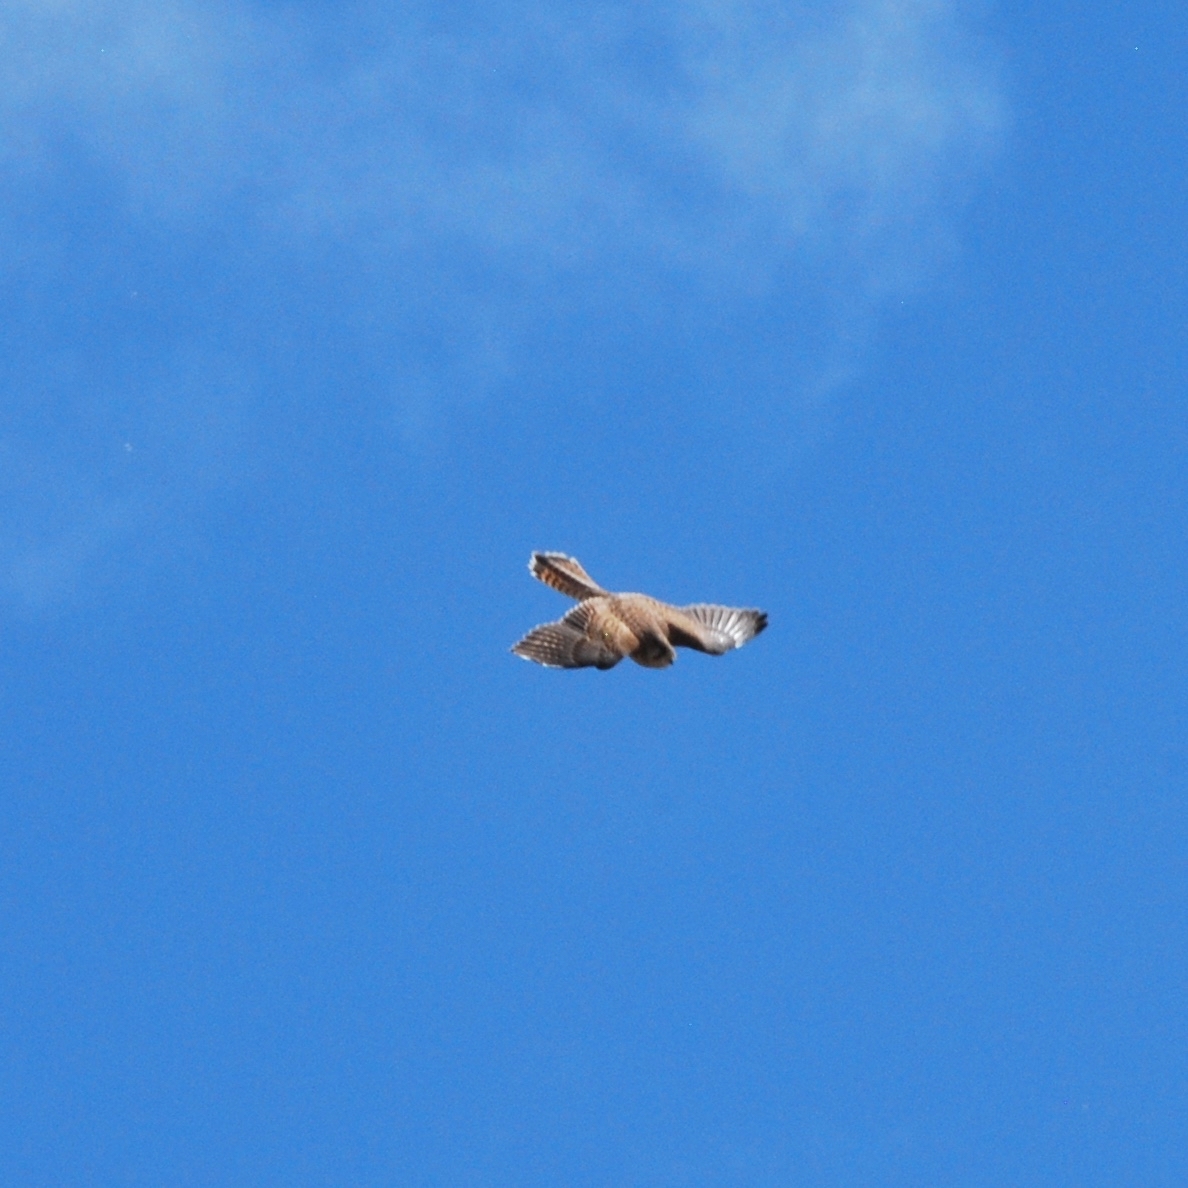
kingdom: Animalia
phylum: Chordata
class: Aves
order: Falconiformes
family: Falconidae
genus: Falco
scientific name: Falco tinnunculus
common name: Common kestrel
